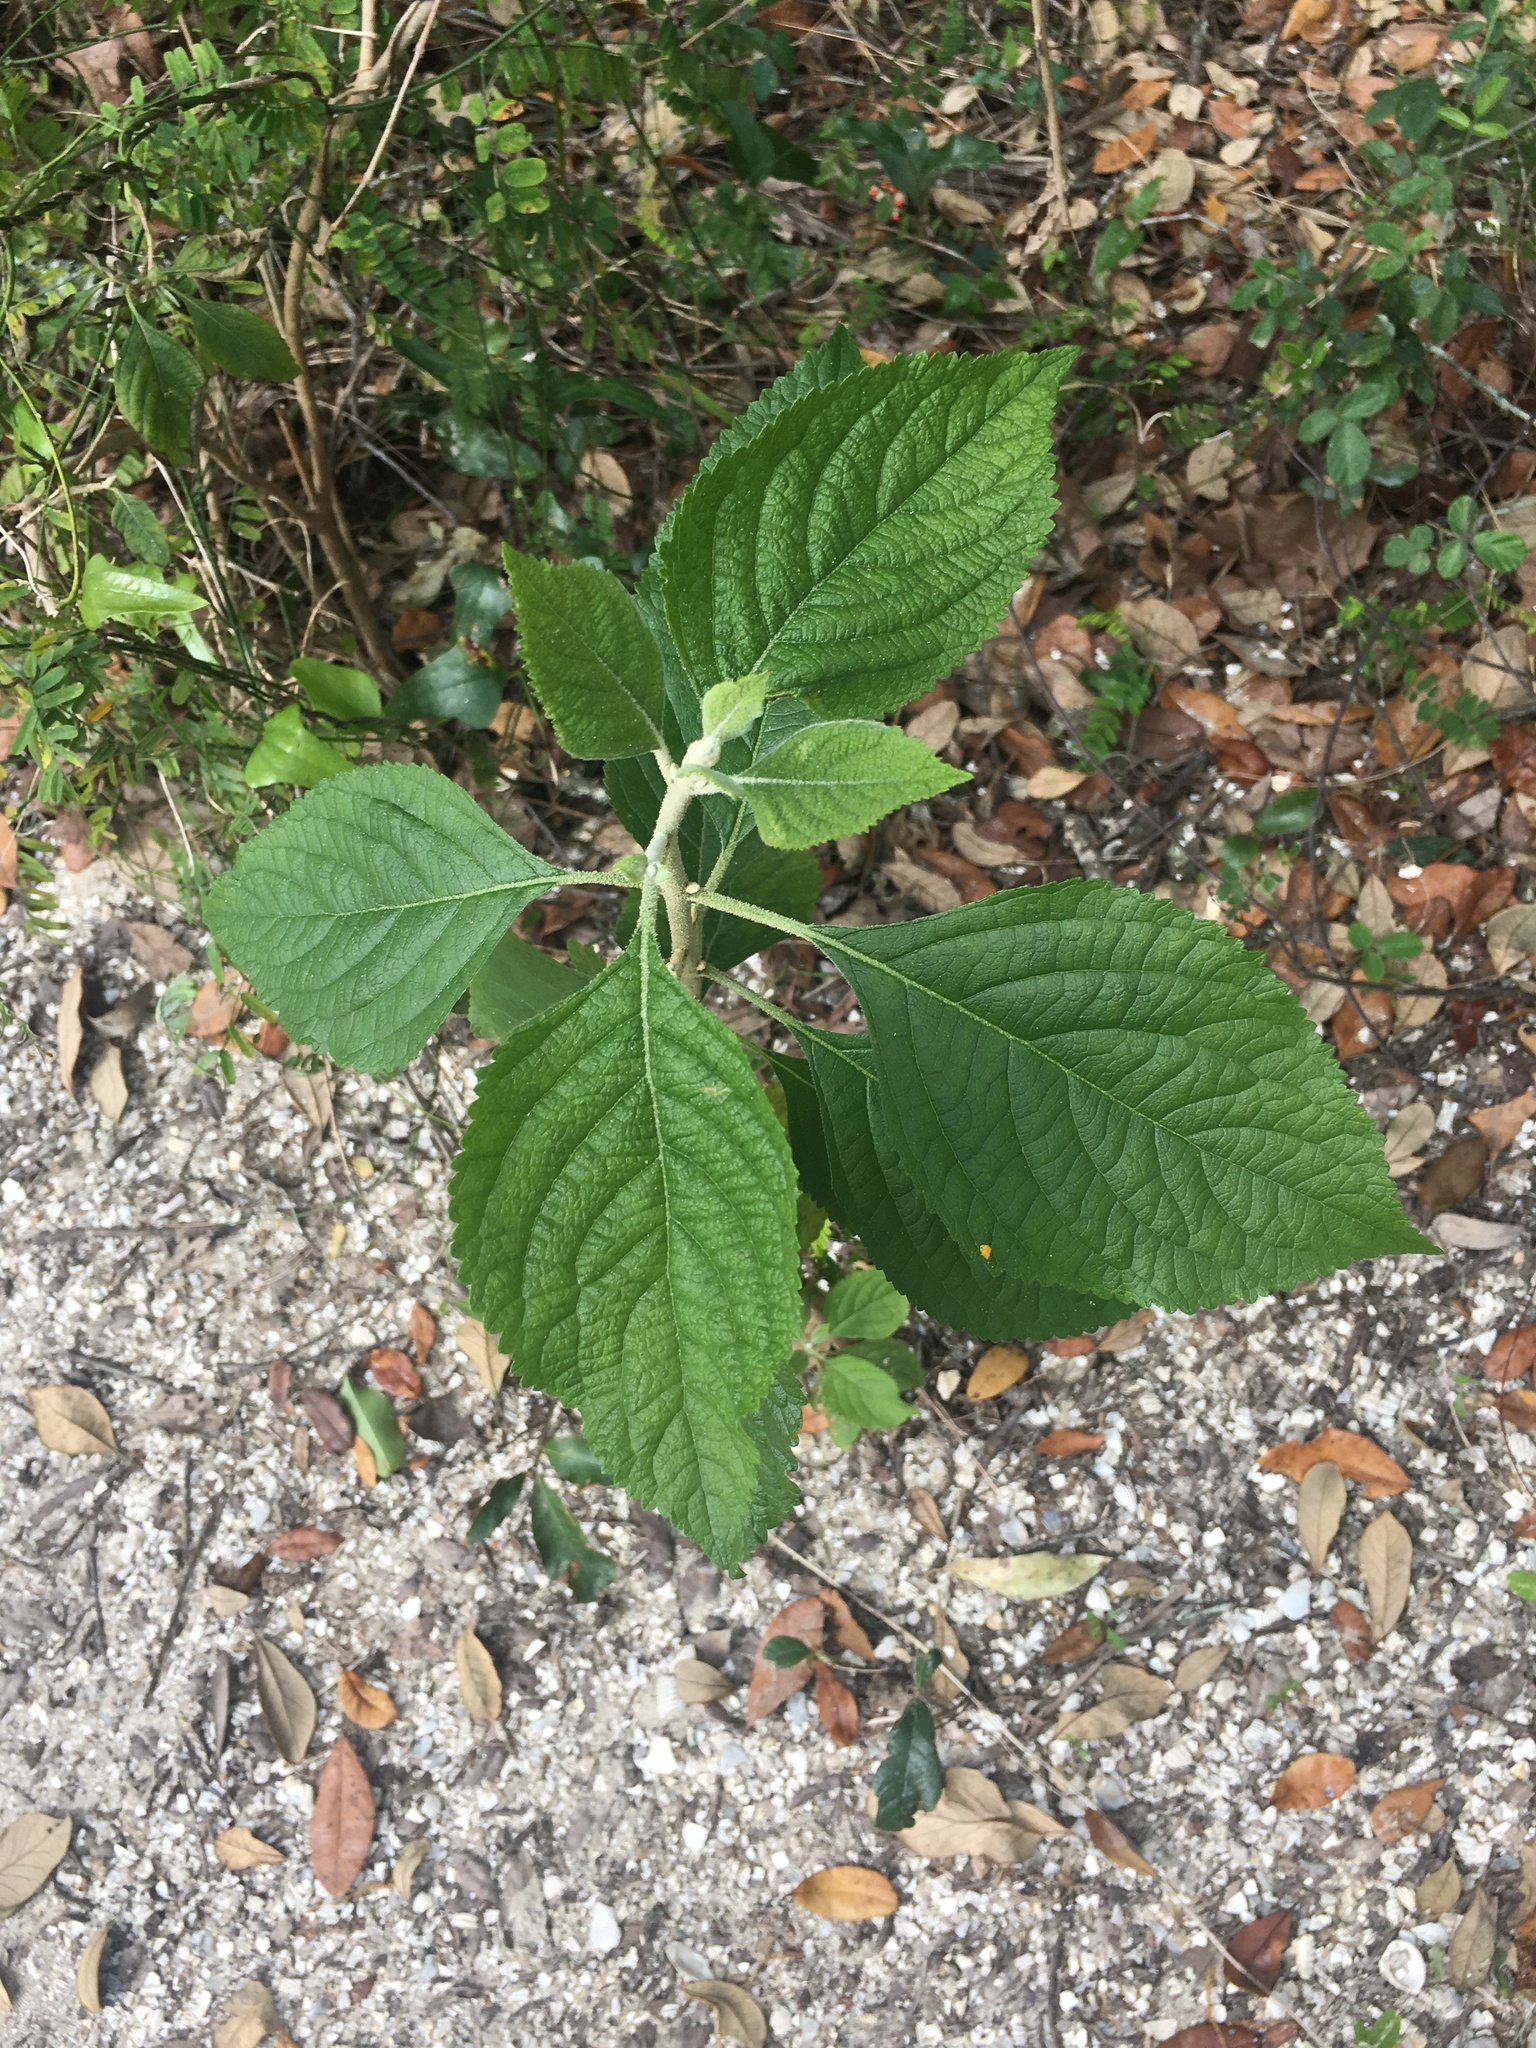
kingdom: Plantae
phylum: Tracheophyta
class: Magnoliopsida
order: Lamiales
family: Lamiaceae
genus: Callicarpa
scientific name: Callicarpa americana
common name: American beautyberry
